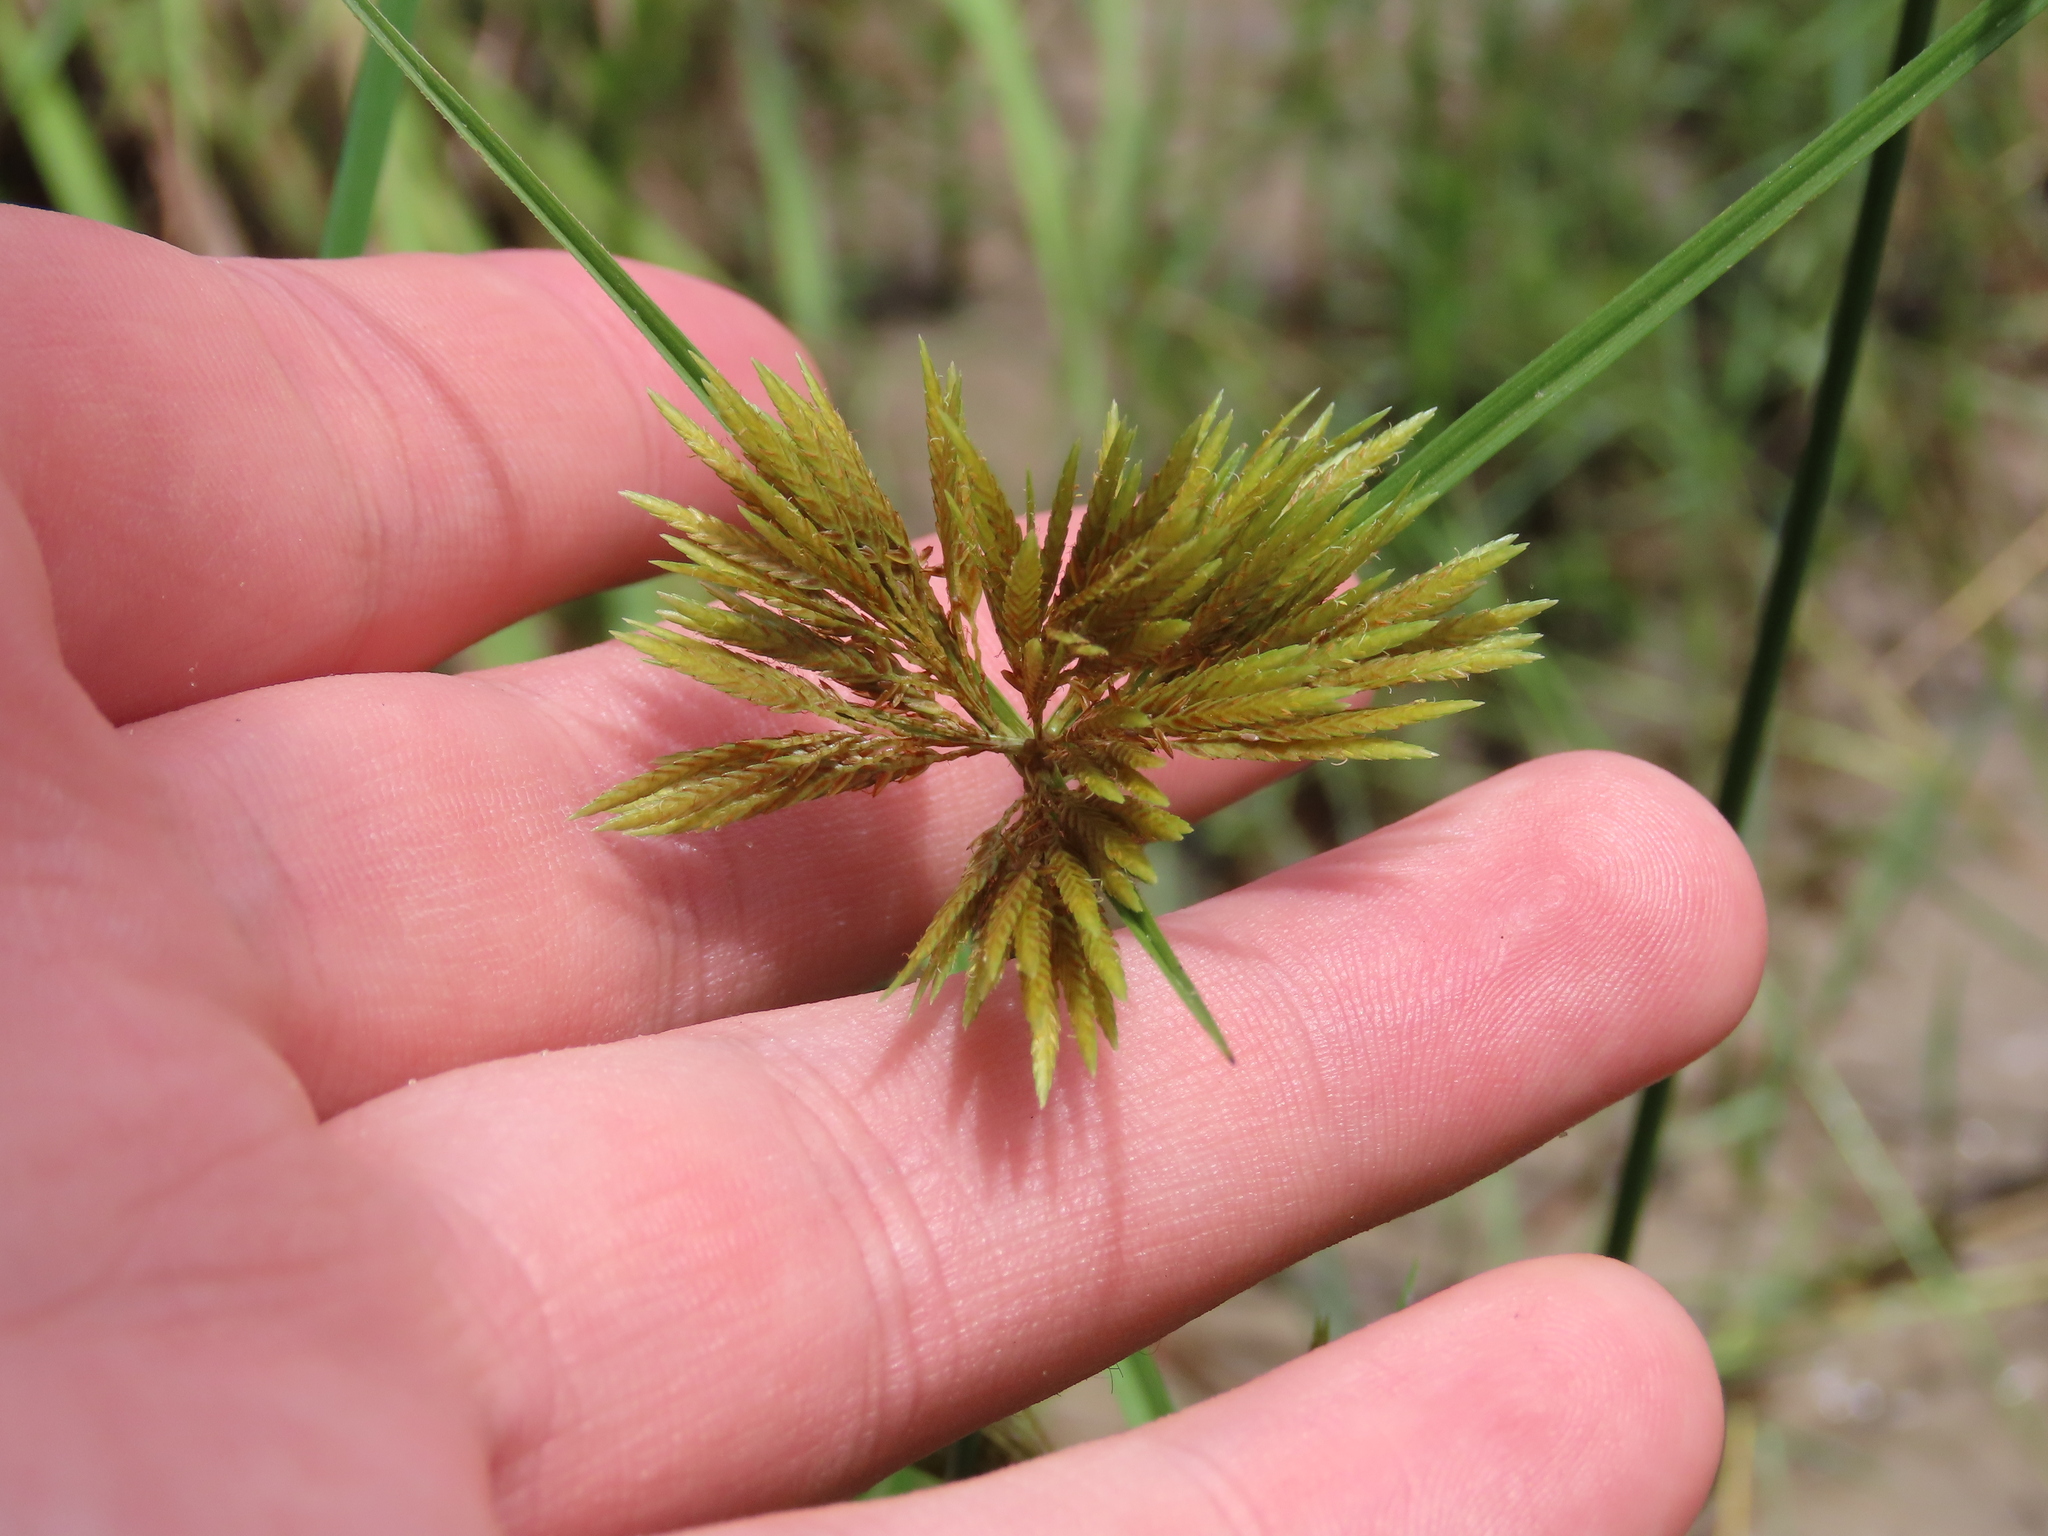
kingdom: Plantae
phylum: Tracheophyta
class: Liliopsida
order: Poales
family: Cyperaceae
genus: Cyperus
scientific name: Cyperus polystachyos
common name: Bunchy flat sedge
